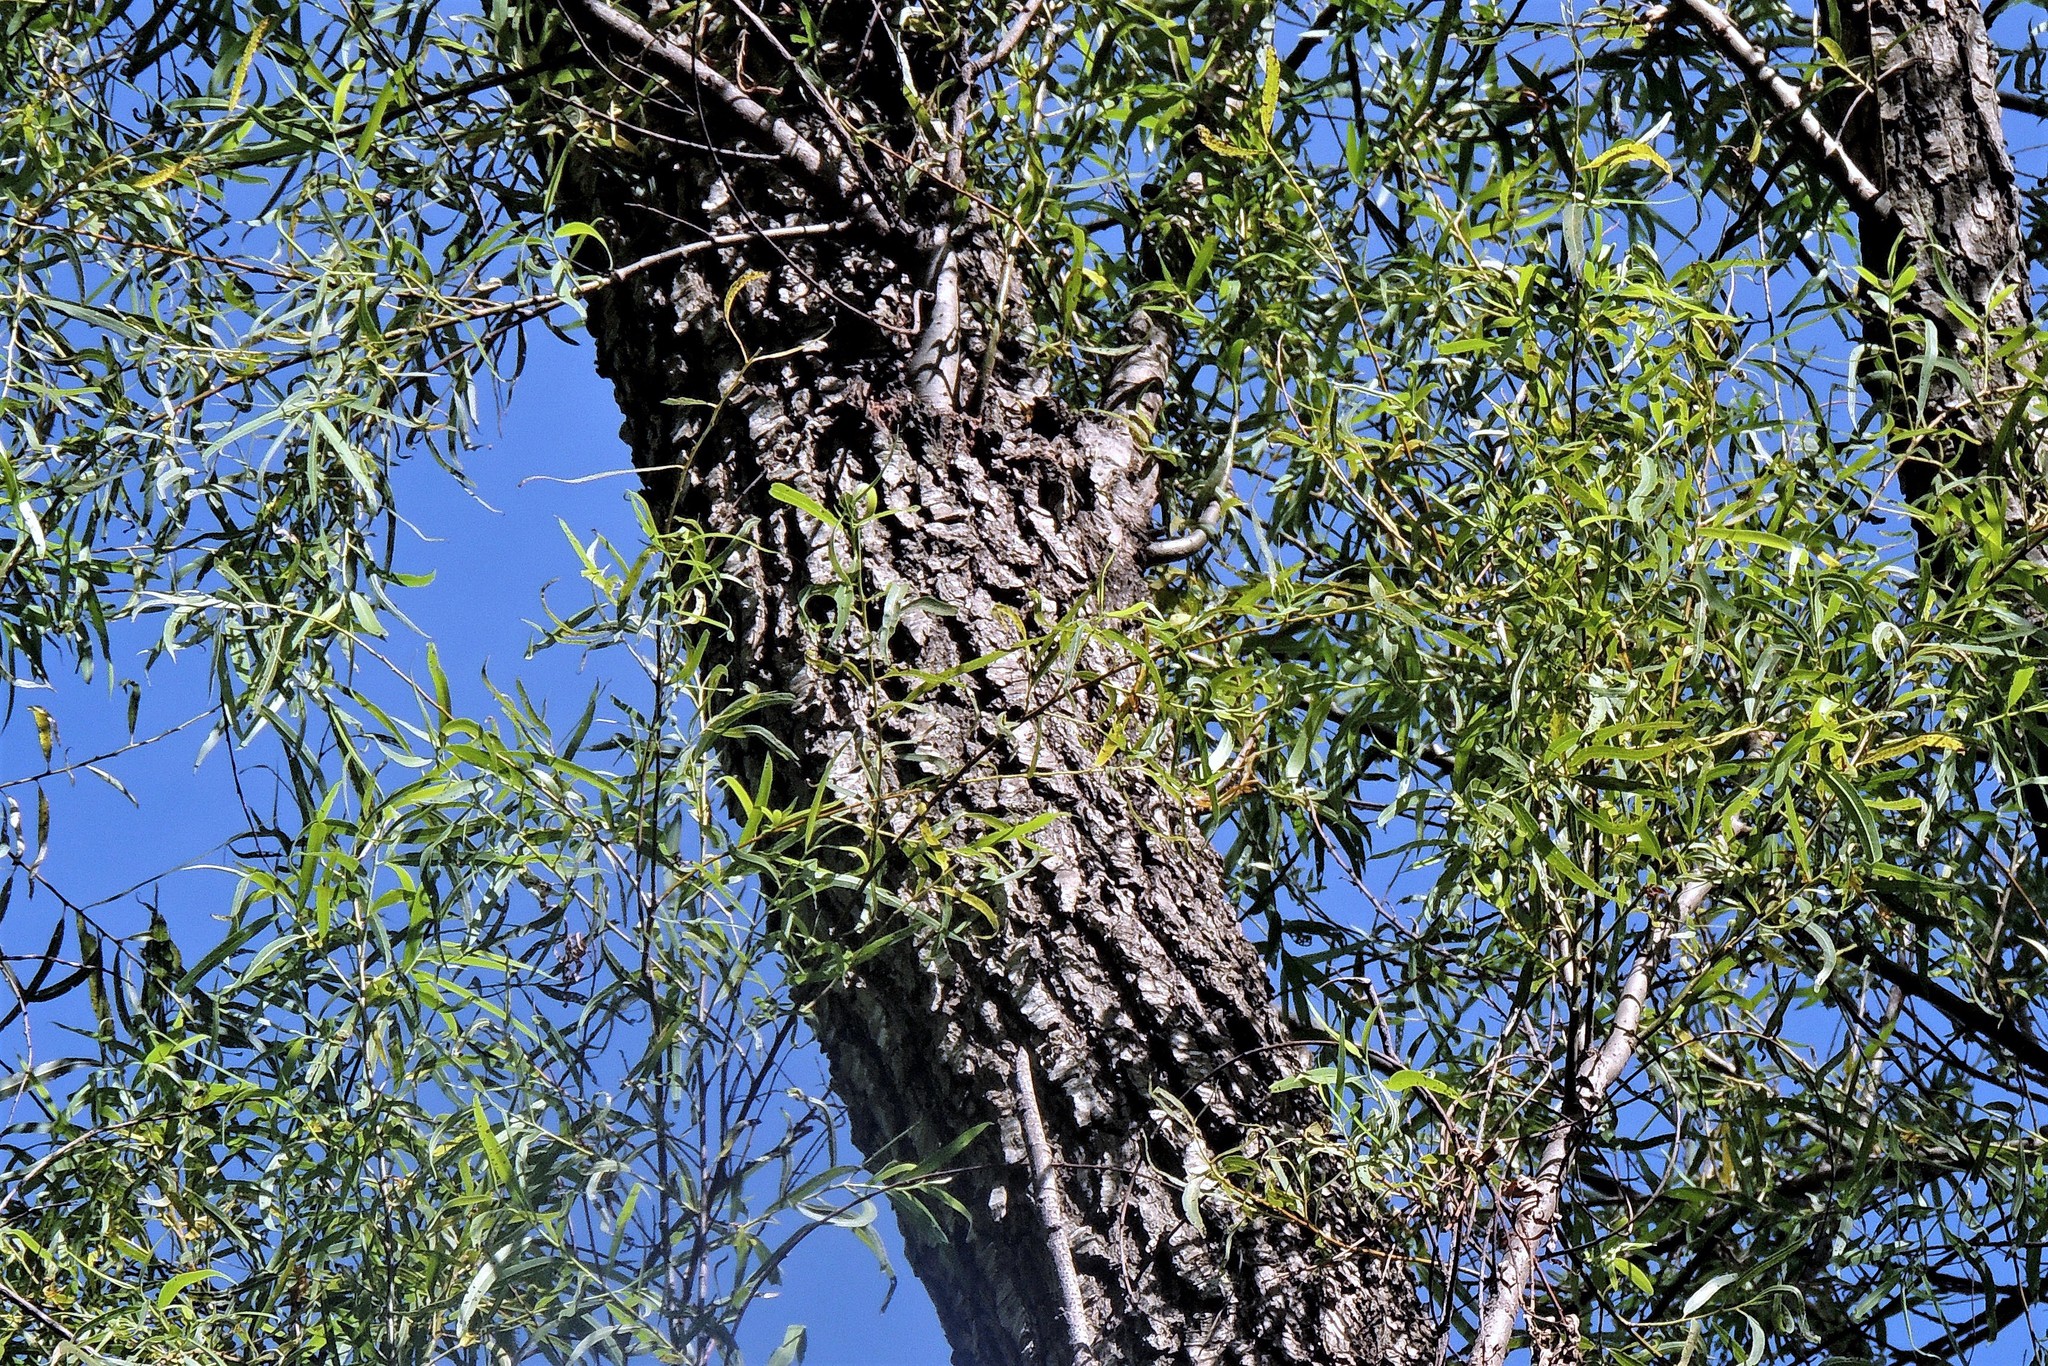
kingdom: Plantae
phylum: Tracheophyta
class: Magnoliopsida
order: Malpighiales
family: Salicaceae
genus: Salix
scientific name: Salix humboldtiana
